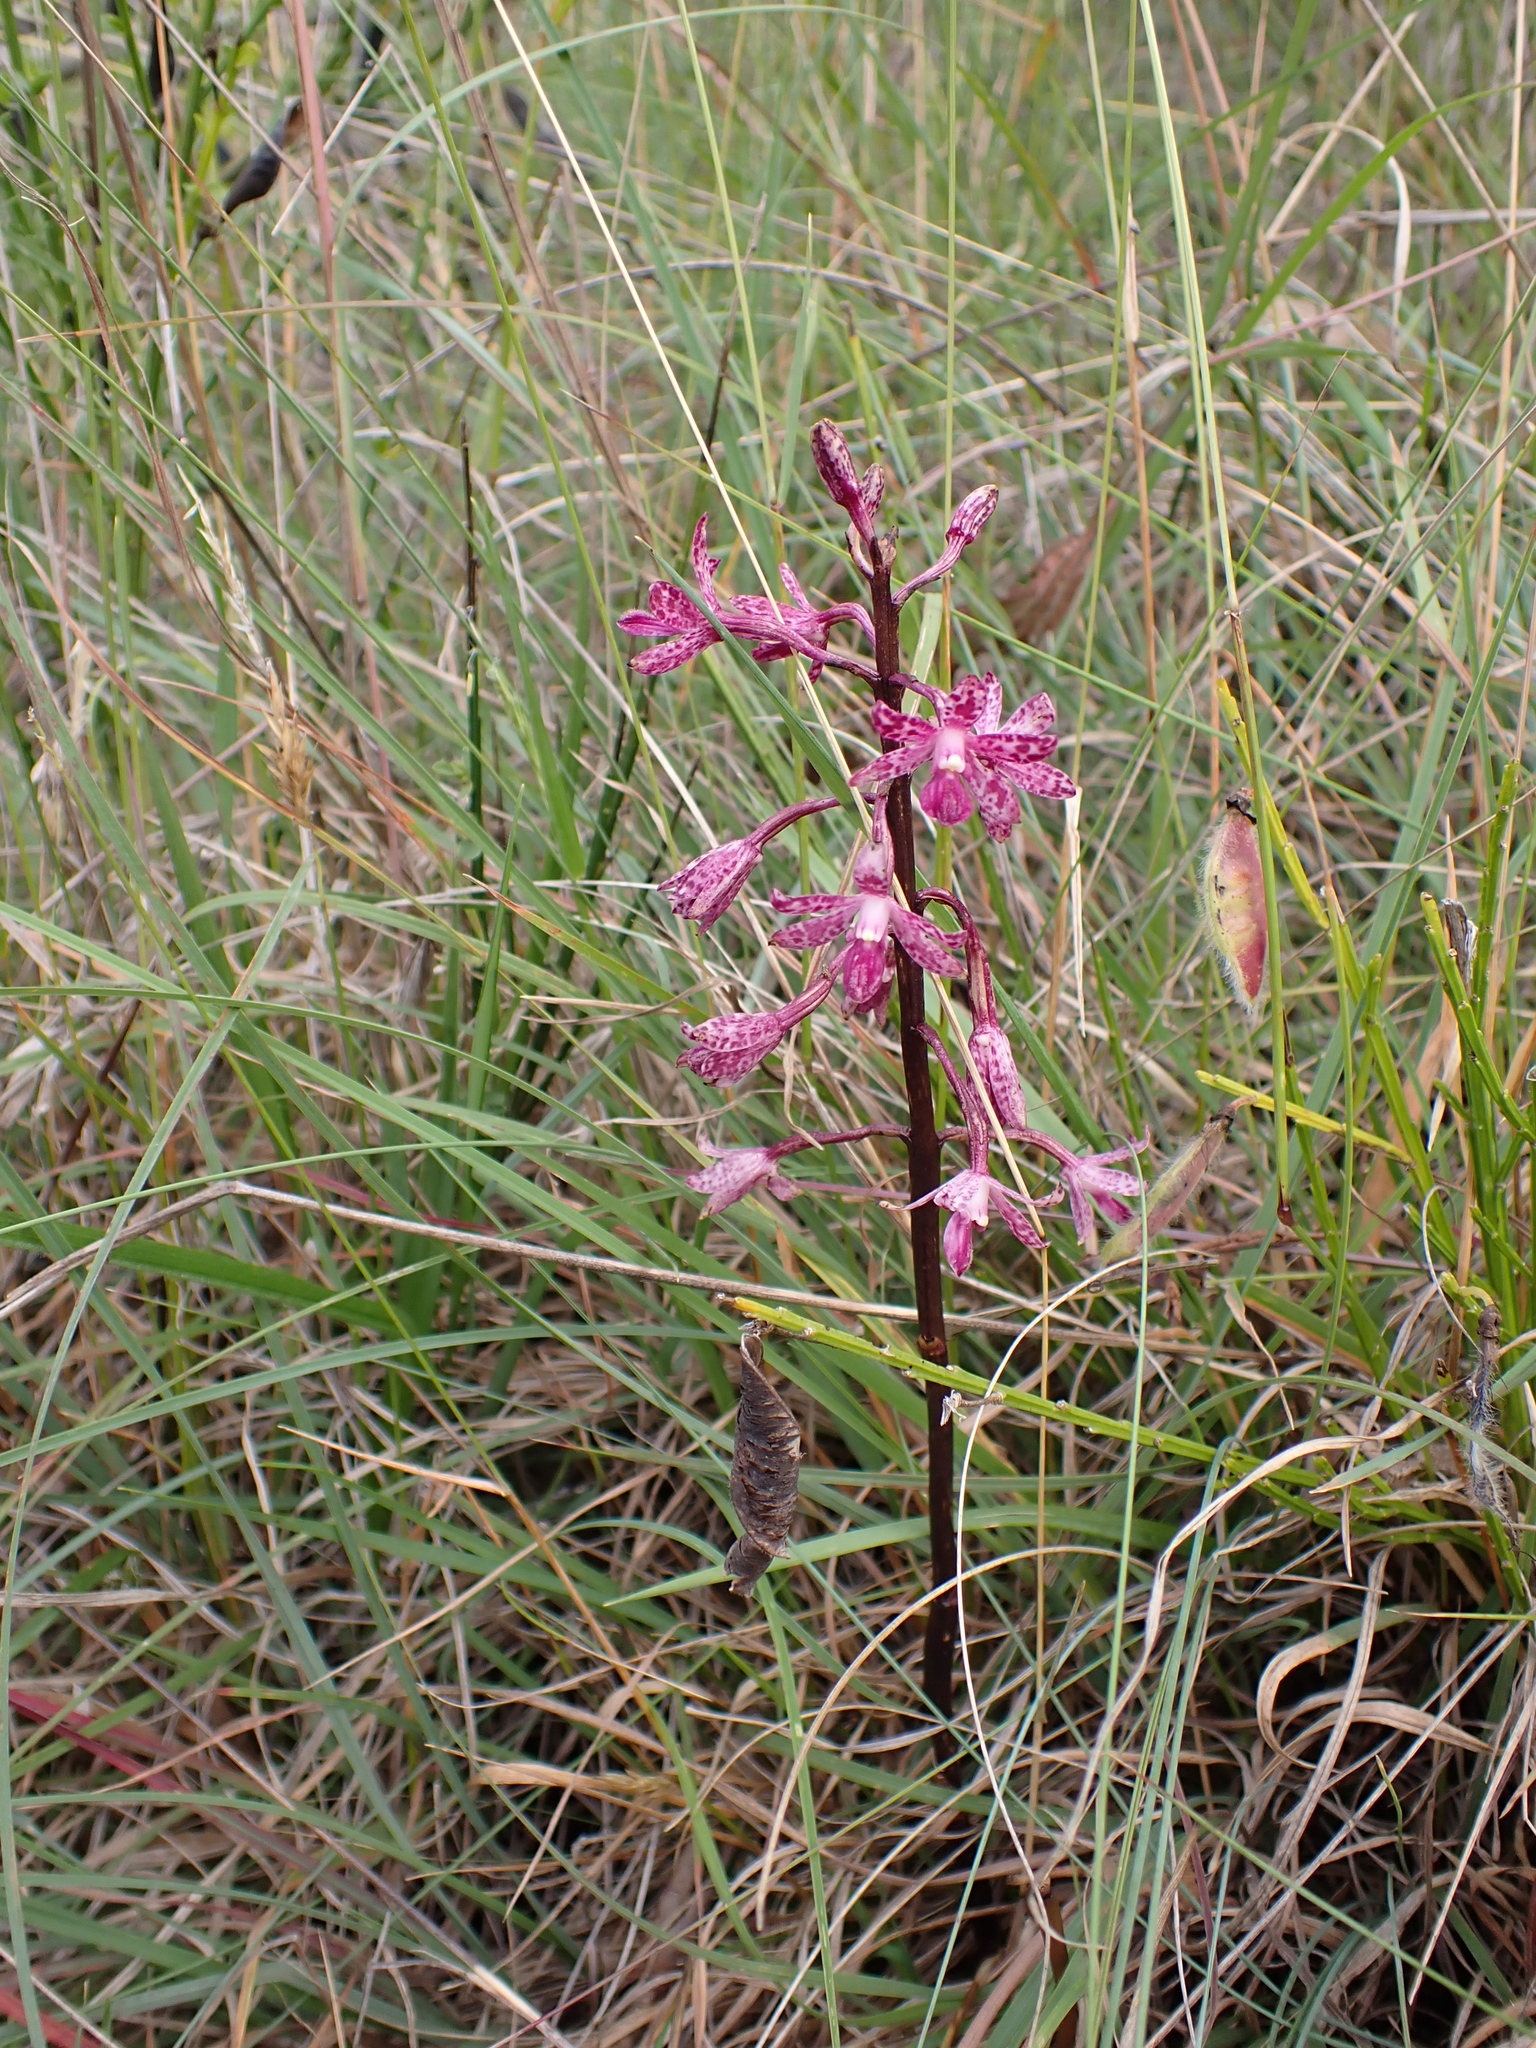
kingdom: Plantae
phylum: Tracheophyta
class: Liliopsida
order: Asparagales
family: Orchidaceae
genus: Dipodium
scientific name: Dipodium squamatum
